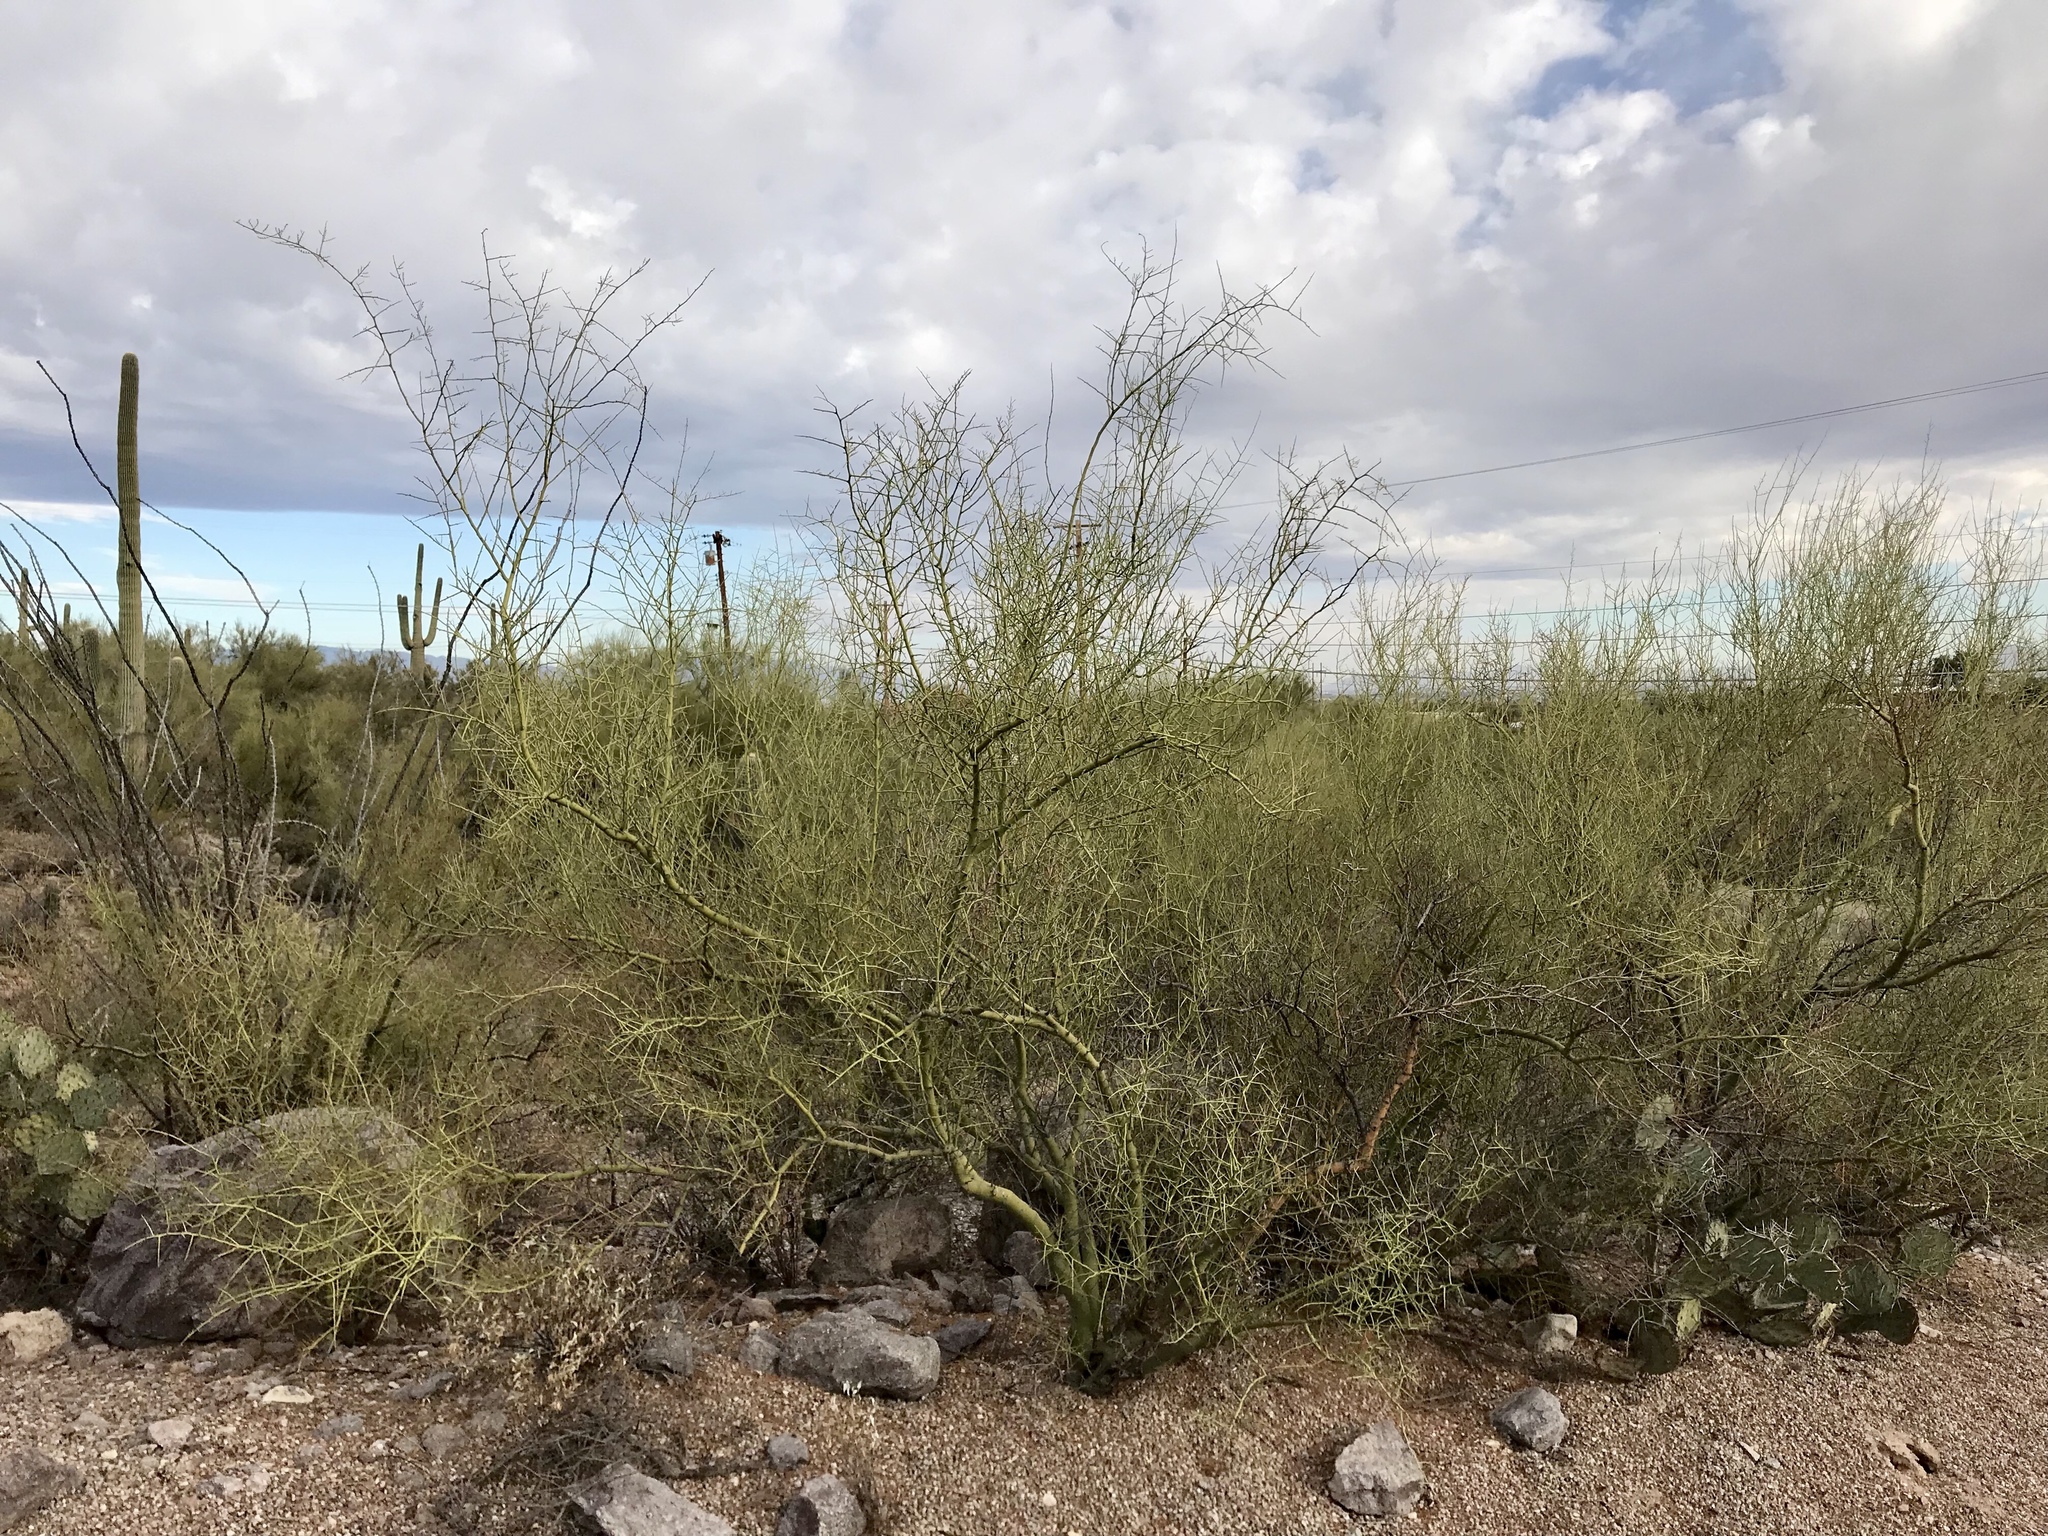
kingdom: Plantae
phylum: Tracheophyta
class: Magnoliopsida
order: Fabales
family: Fabaceae
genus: Parkinsonia
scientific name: Parkinsonia microphylla
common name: Yellow paloverde
